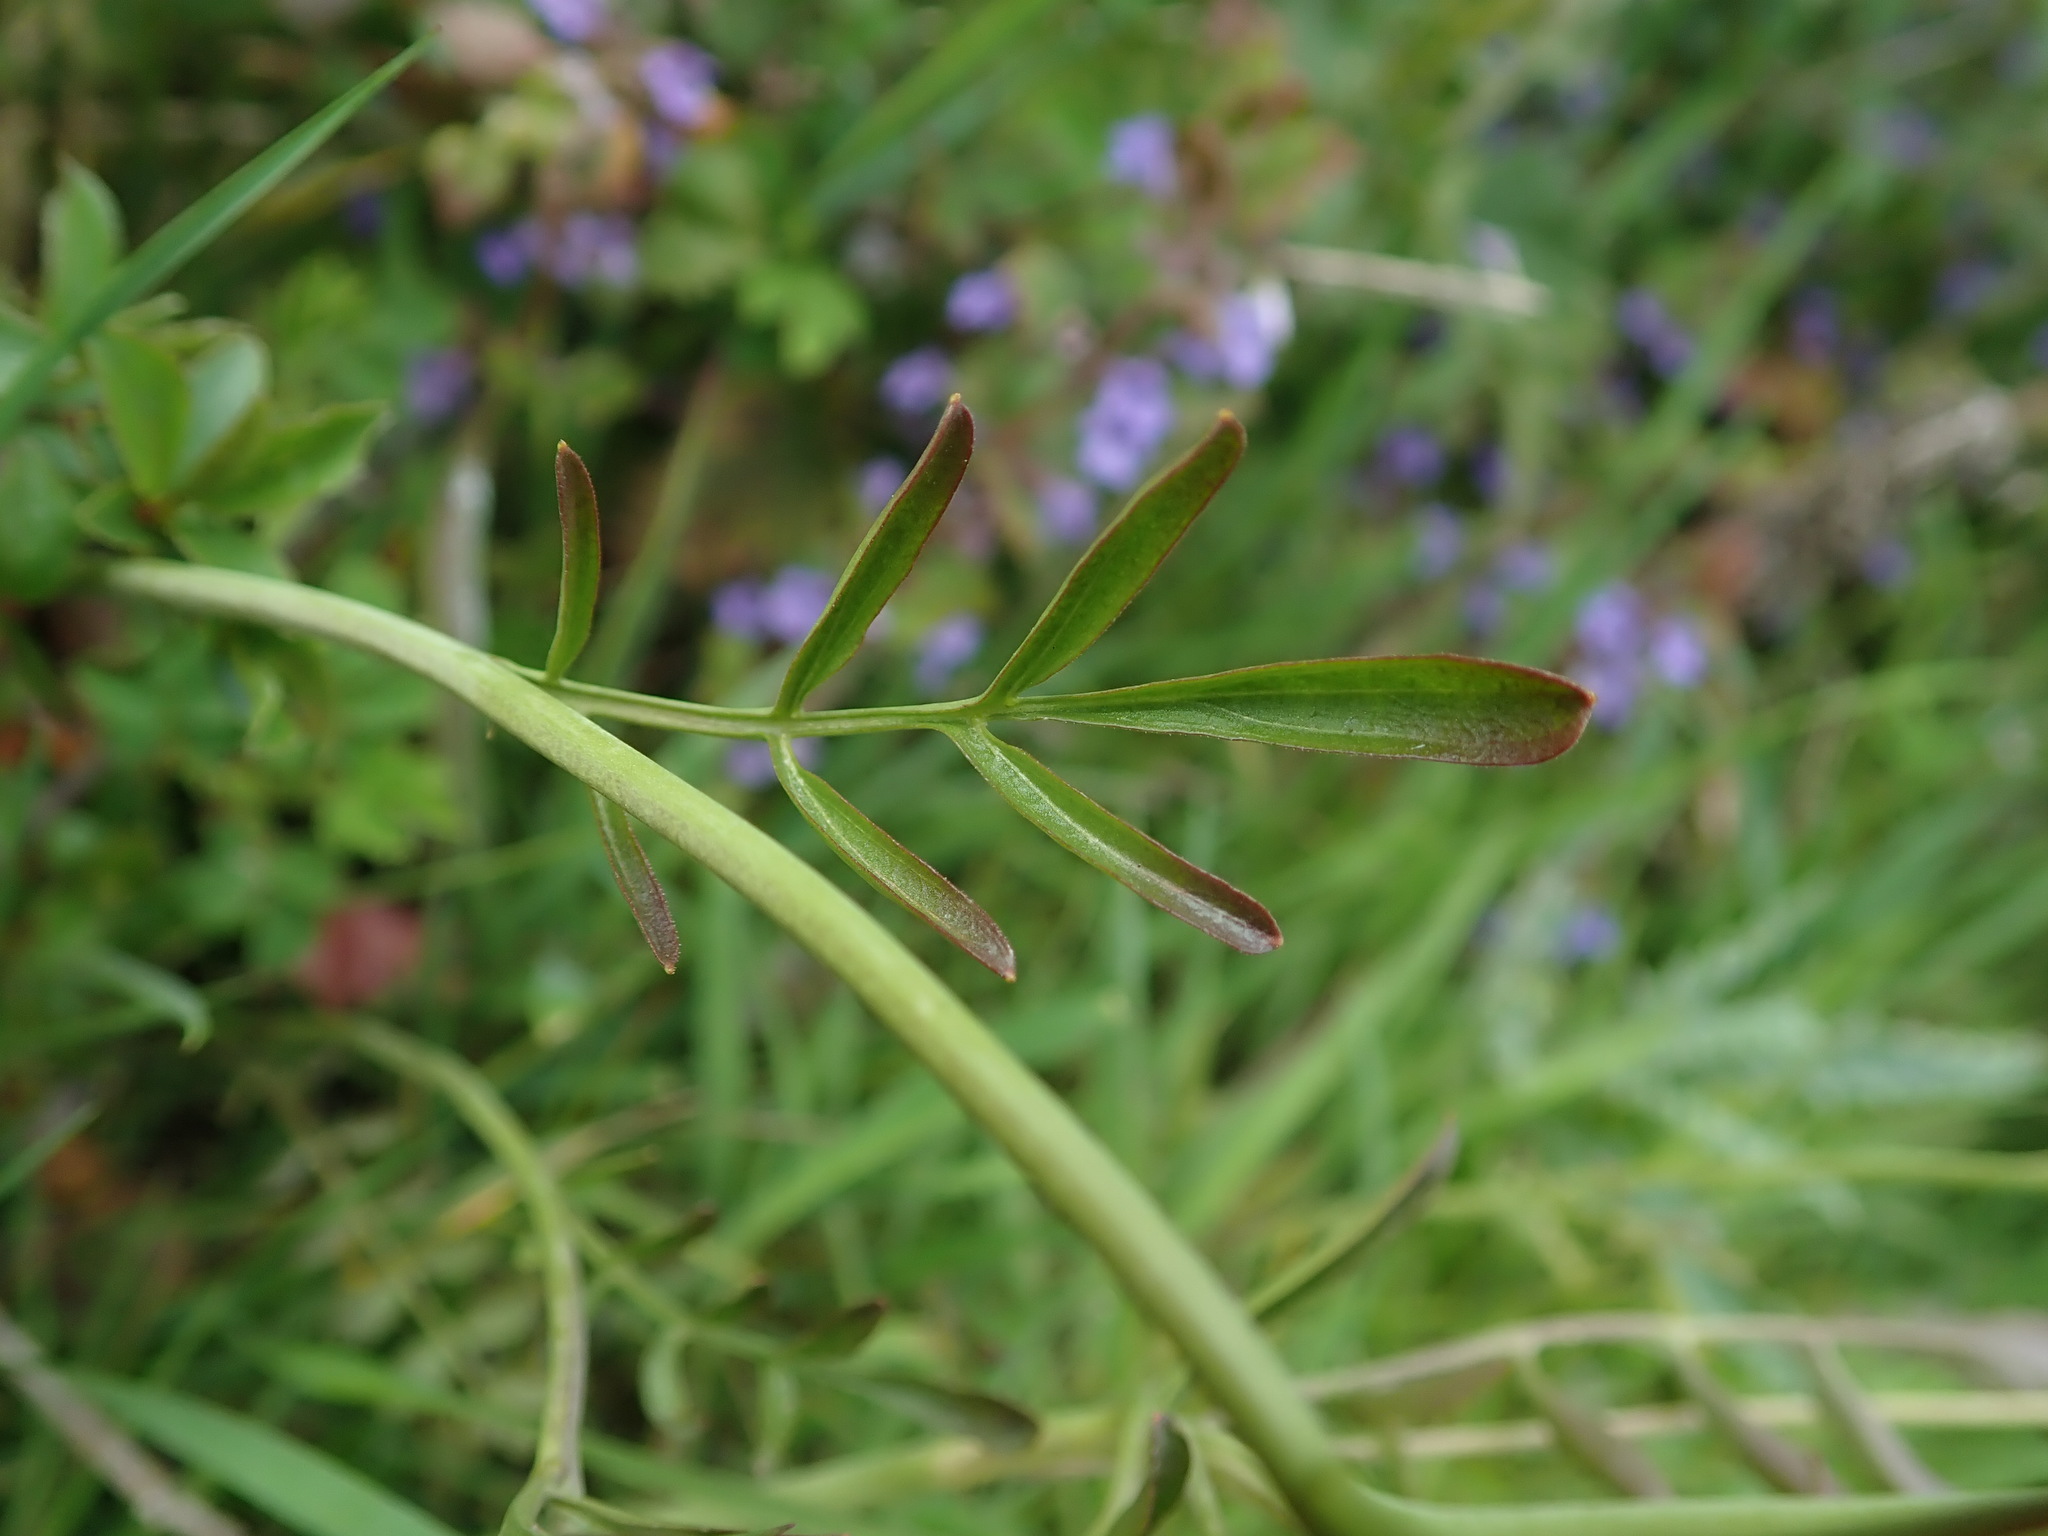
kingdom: Plantae
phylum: Tracheophyta
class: Magnoliopsida
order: Brassicales
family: Brassicaceae
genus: Cardamine
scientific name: Cardamine pratensis
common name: Cuckoo flower
